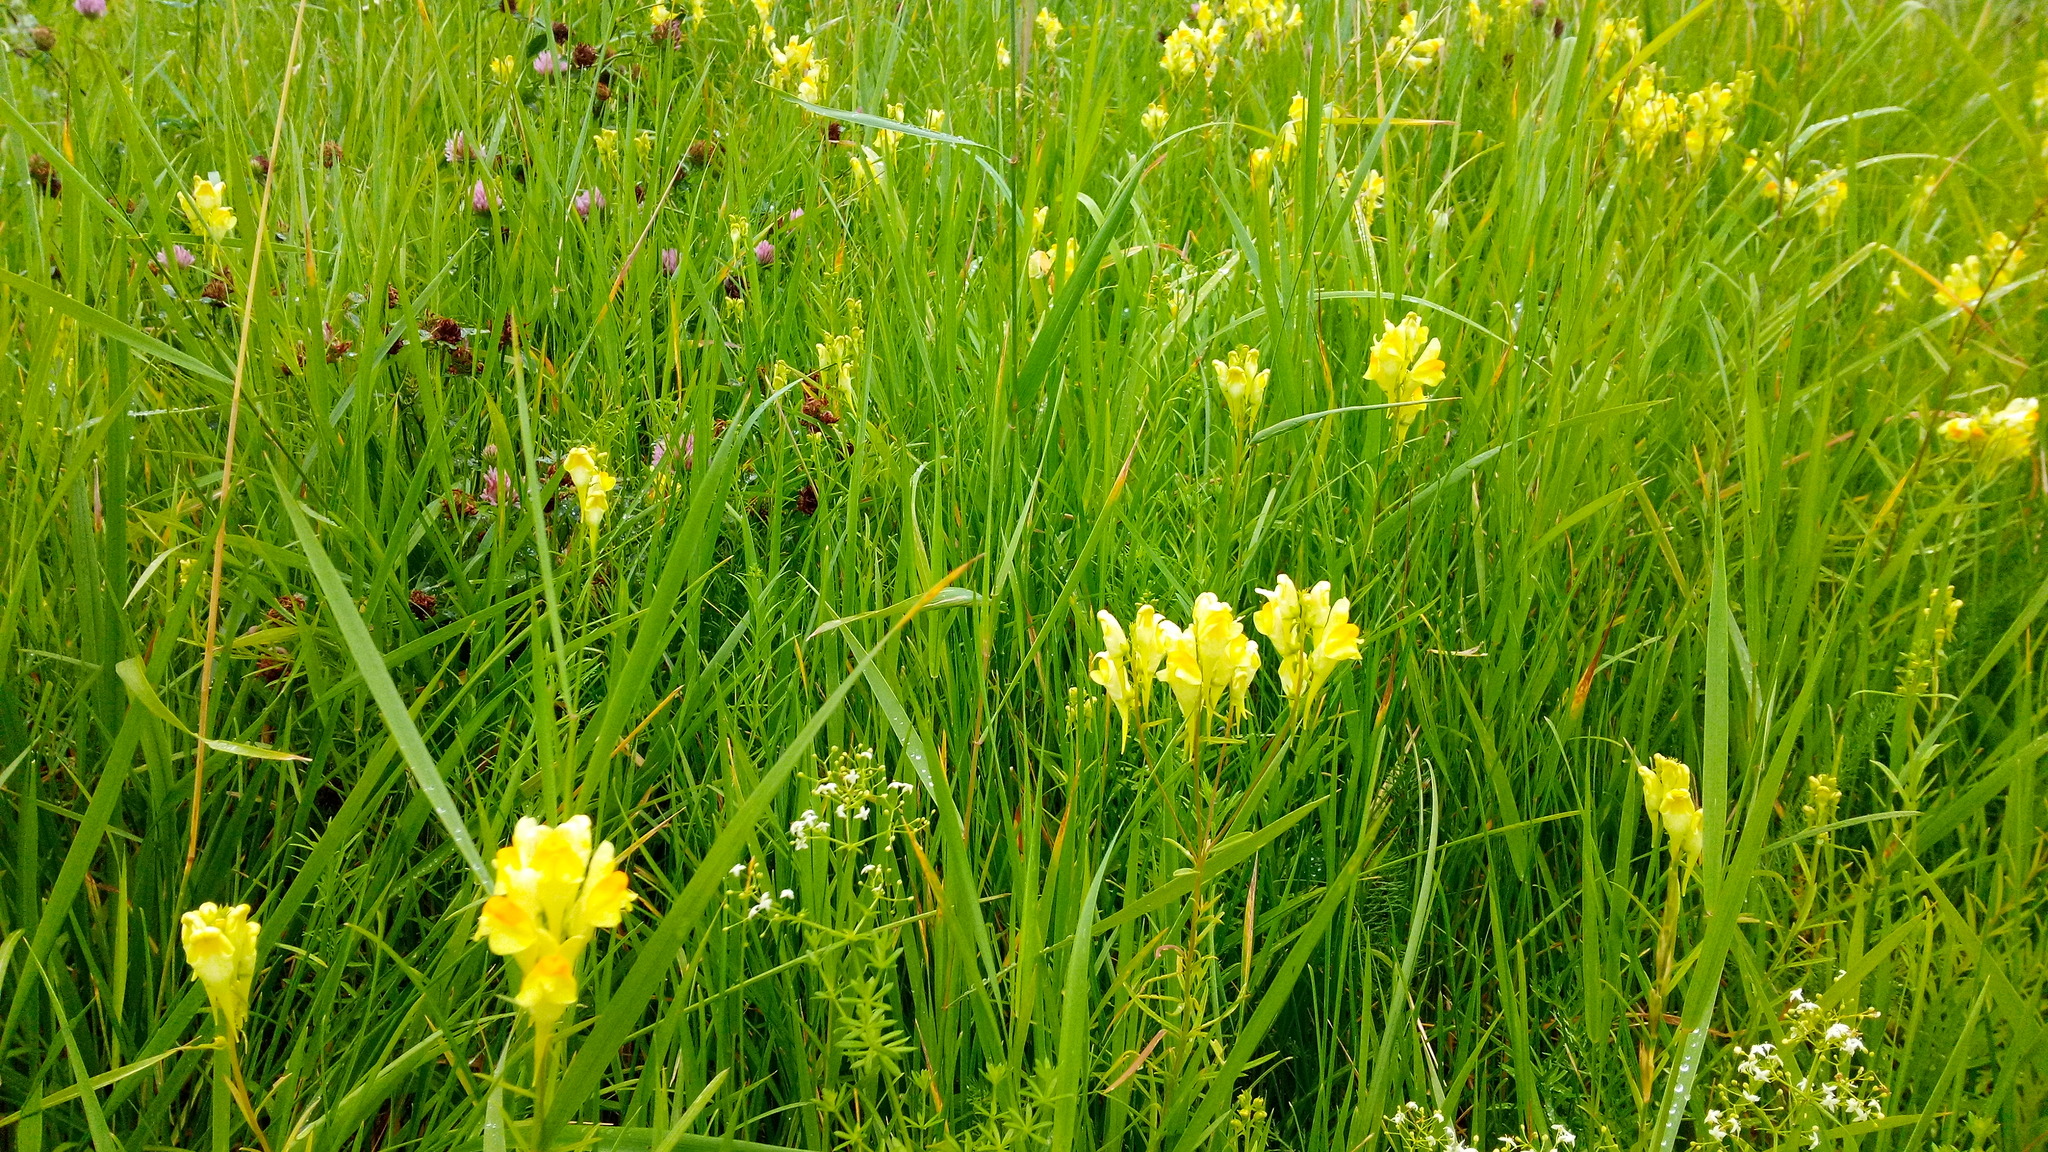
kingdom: Plantae
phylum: Tracheophyta
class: Magnoliopsida
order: Lamiales
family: Plantaginaceae
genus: Linaria
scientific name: Linaria vulgaris
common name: Butter and eggs
